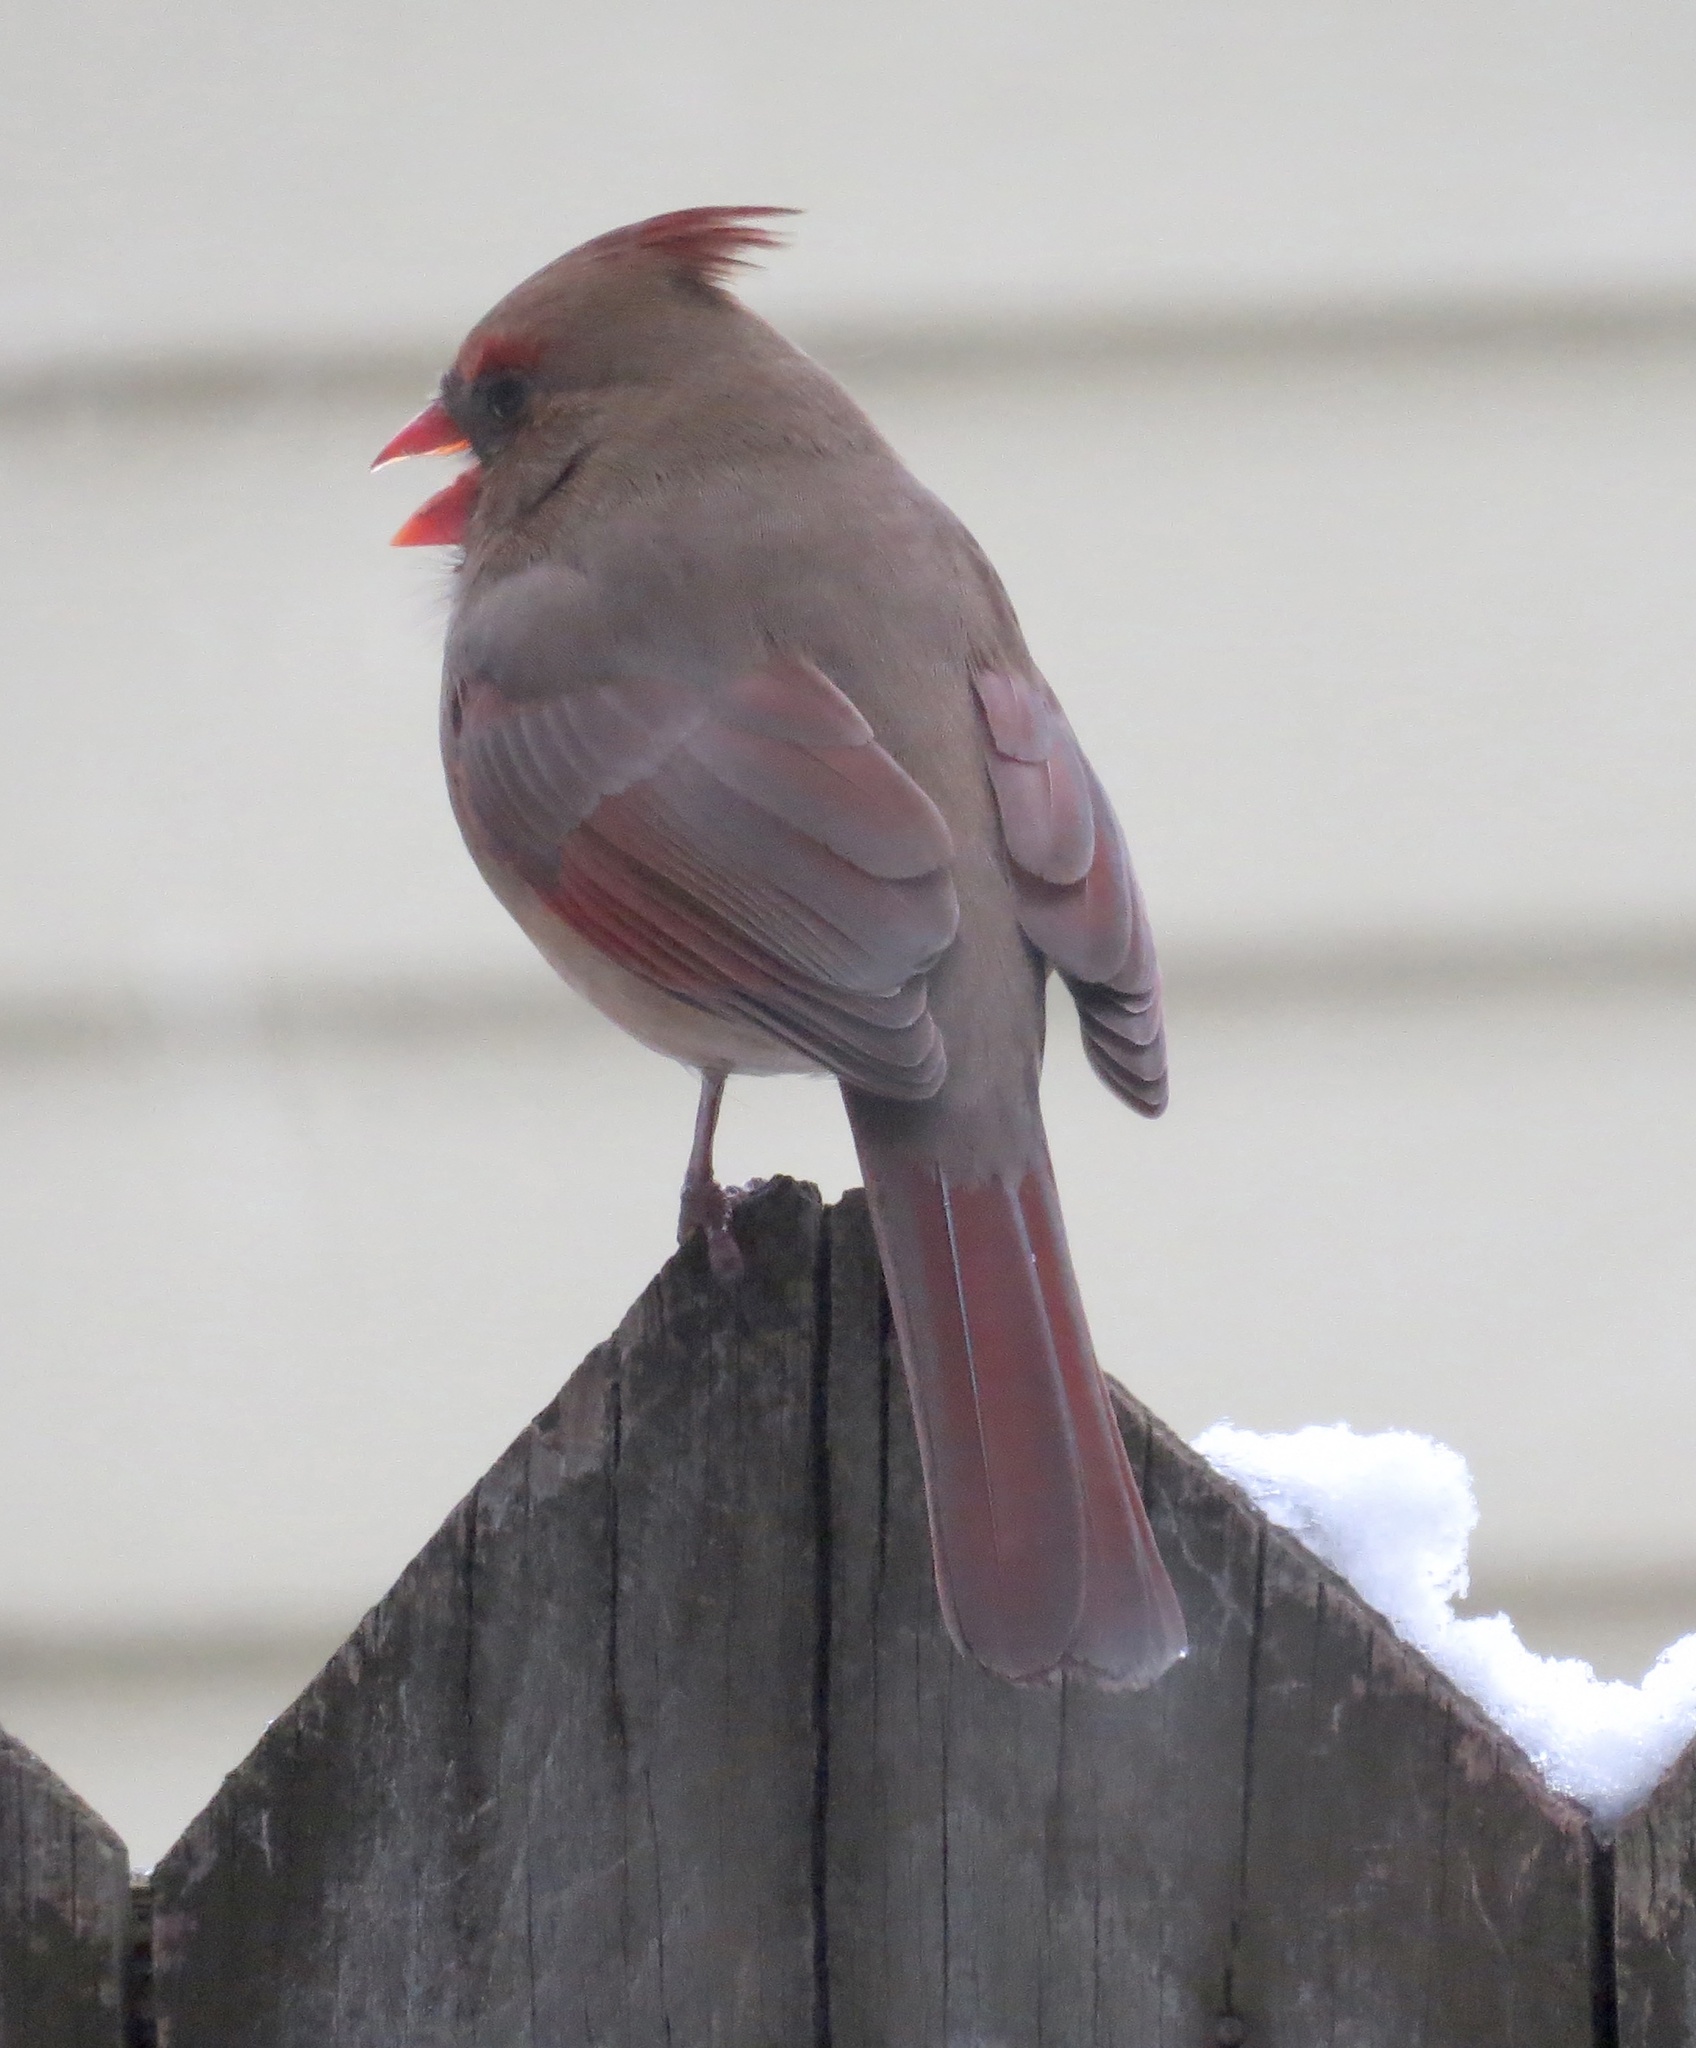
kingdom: Animalia
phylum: Chordata
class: Aves
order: Passeriformes
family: Cardinalidae
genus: Cardinalis
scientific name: Cardinalis cardinalis
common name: Northern cardinal
